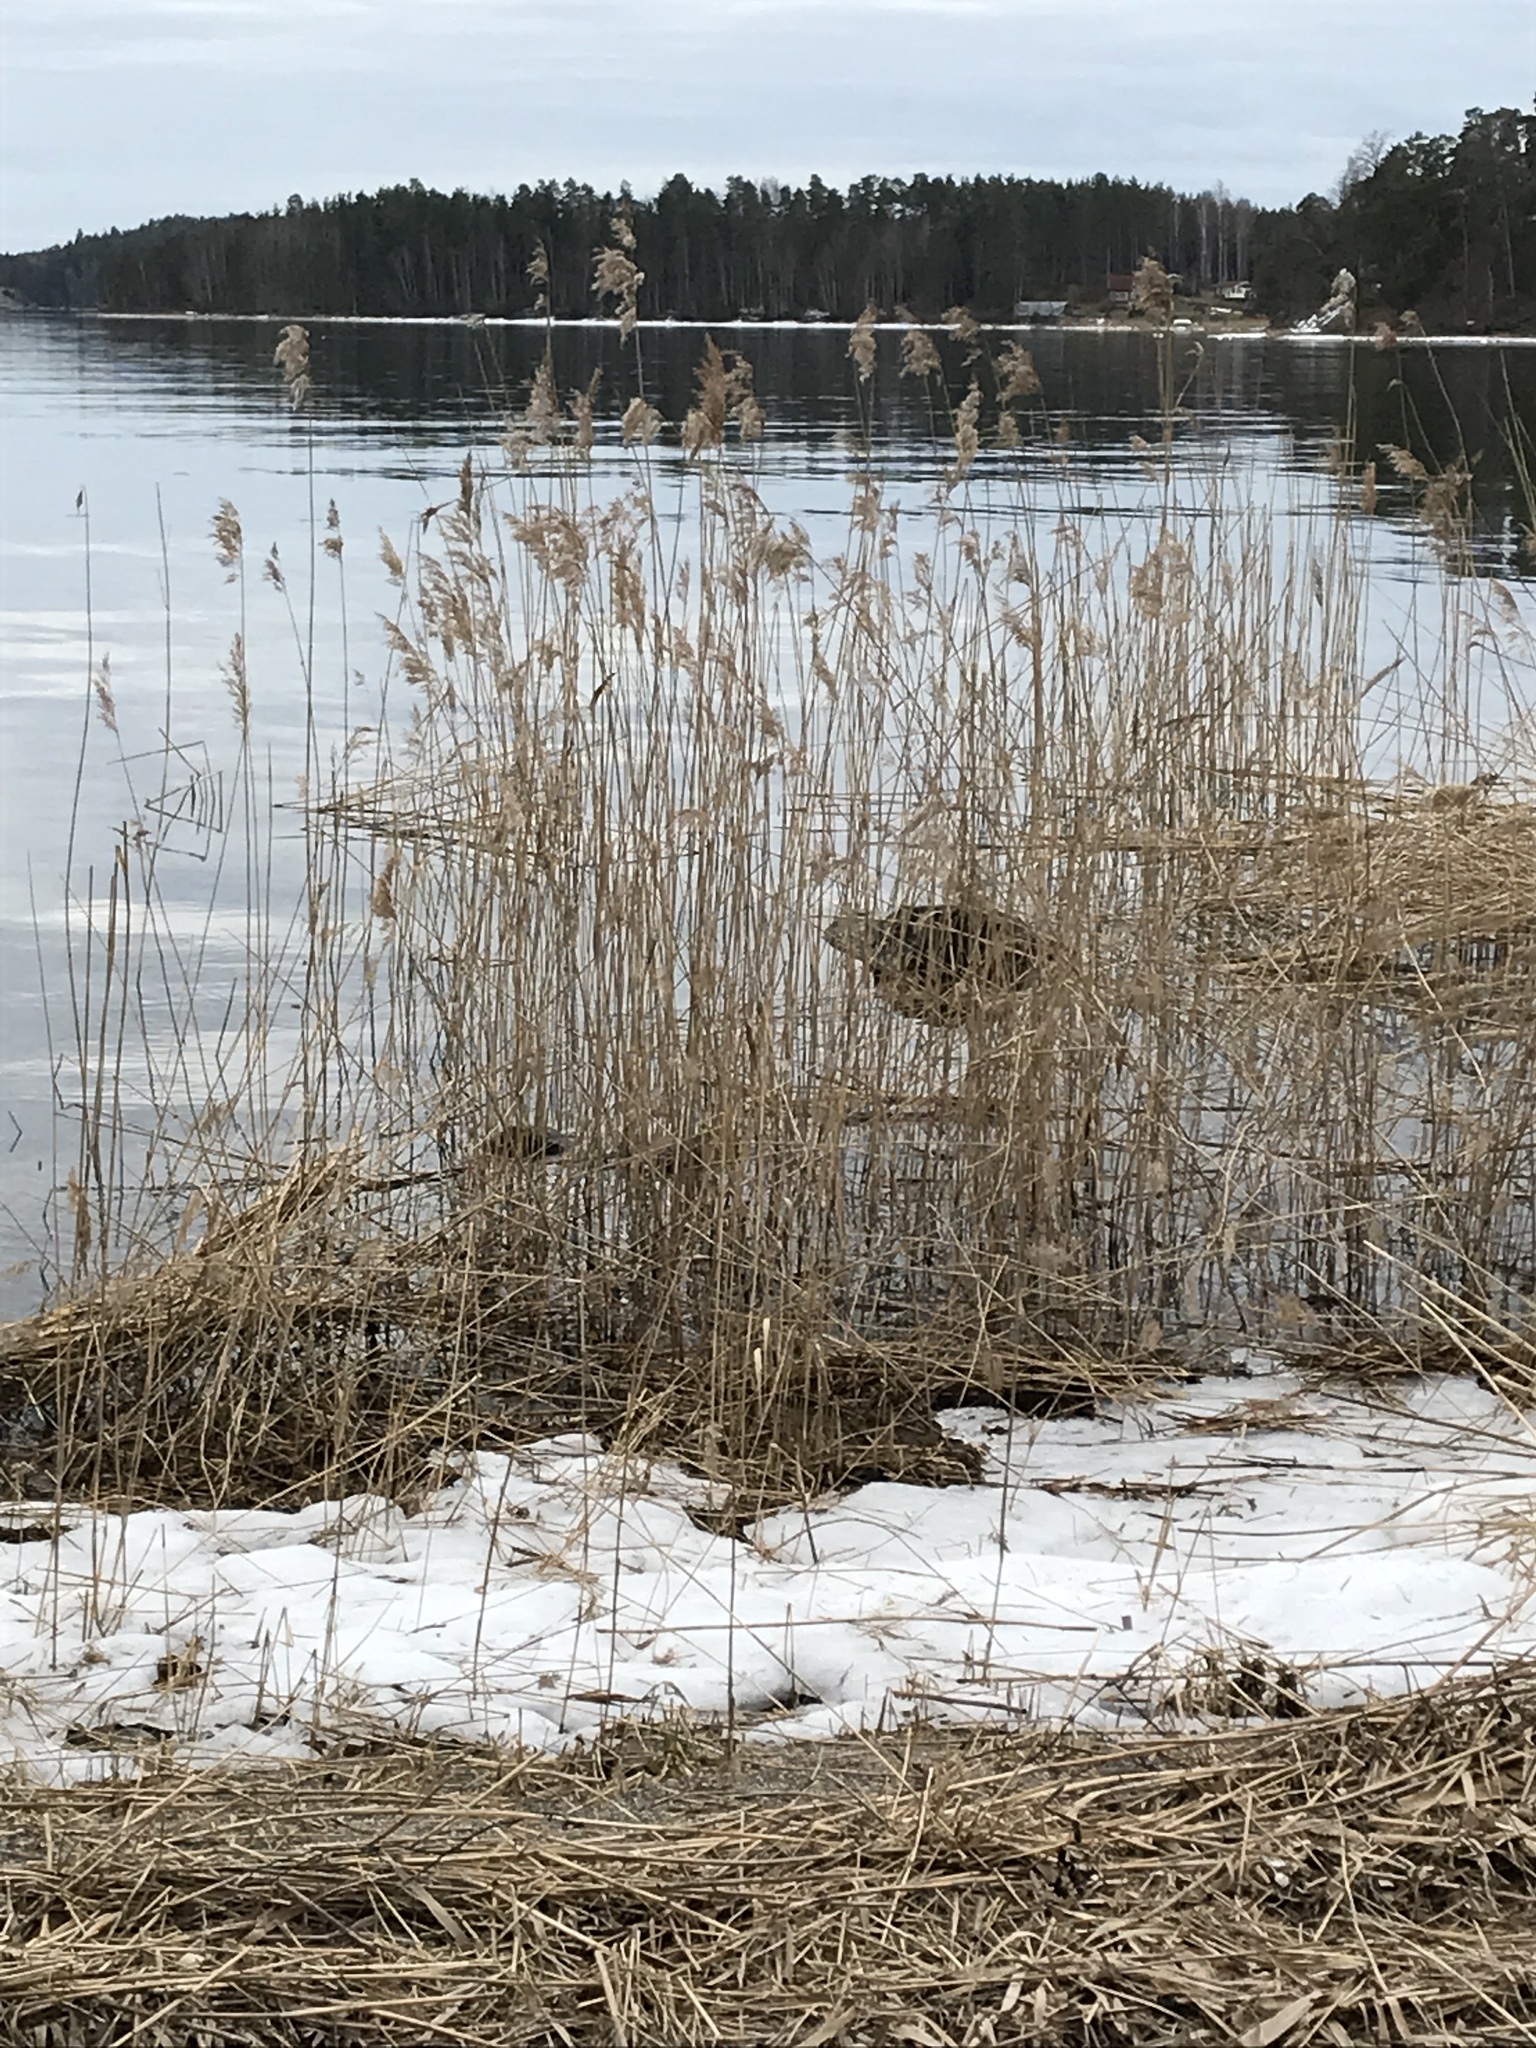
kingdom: Plantae
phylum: Tracheophyta
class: Liliopsida
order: Poales
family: Poaceae
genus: Phragmites
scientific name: Phragmites australis
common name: Common reed
